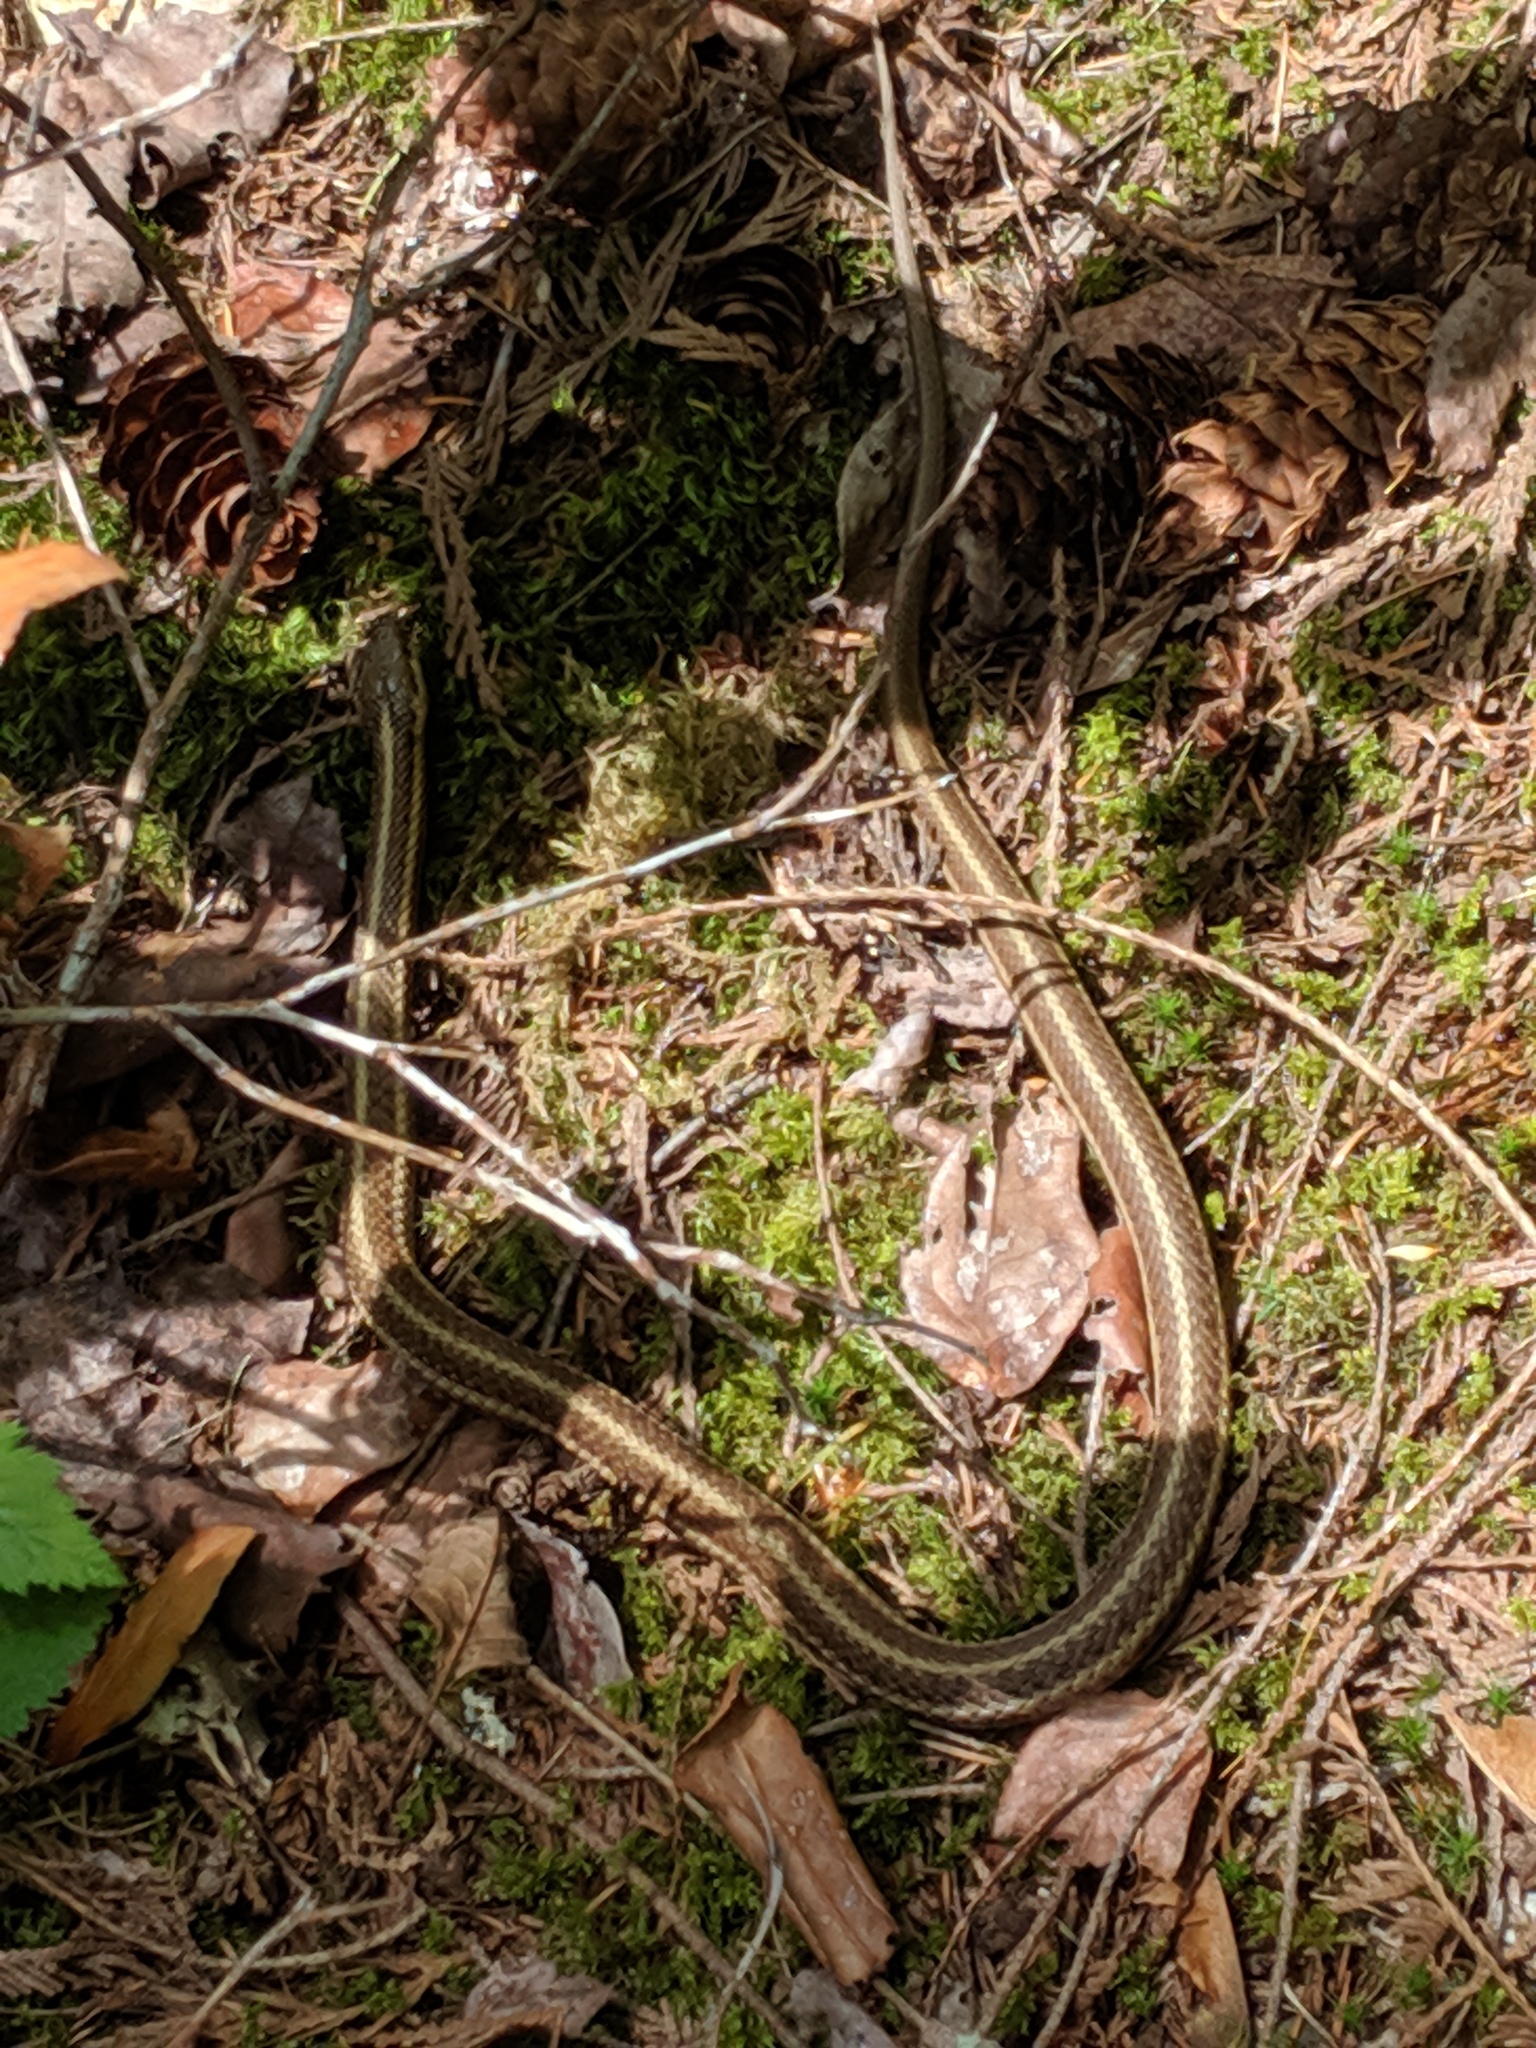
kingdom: Animalia
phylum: Chordata
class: Squamata
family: Colubridae
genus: Thamnophis
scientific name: Thamnophis ordinoides
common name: Northwestern garter snake
